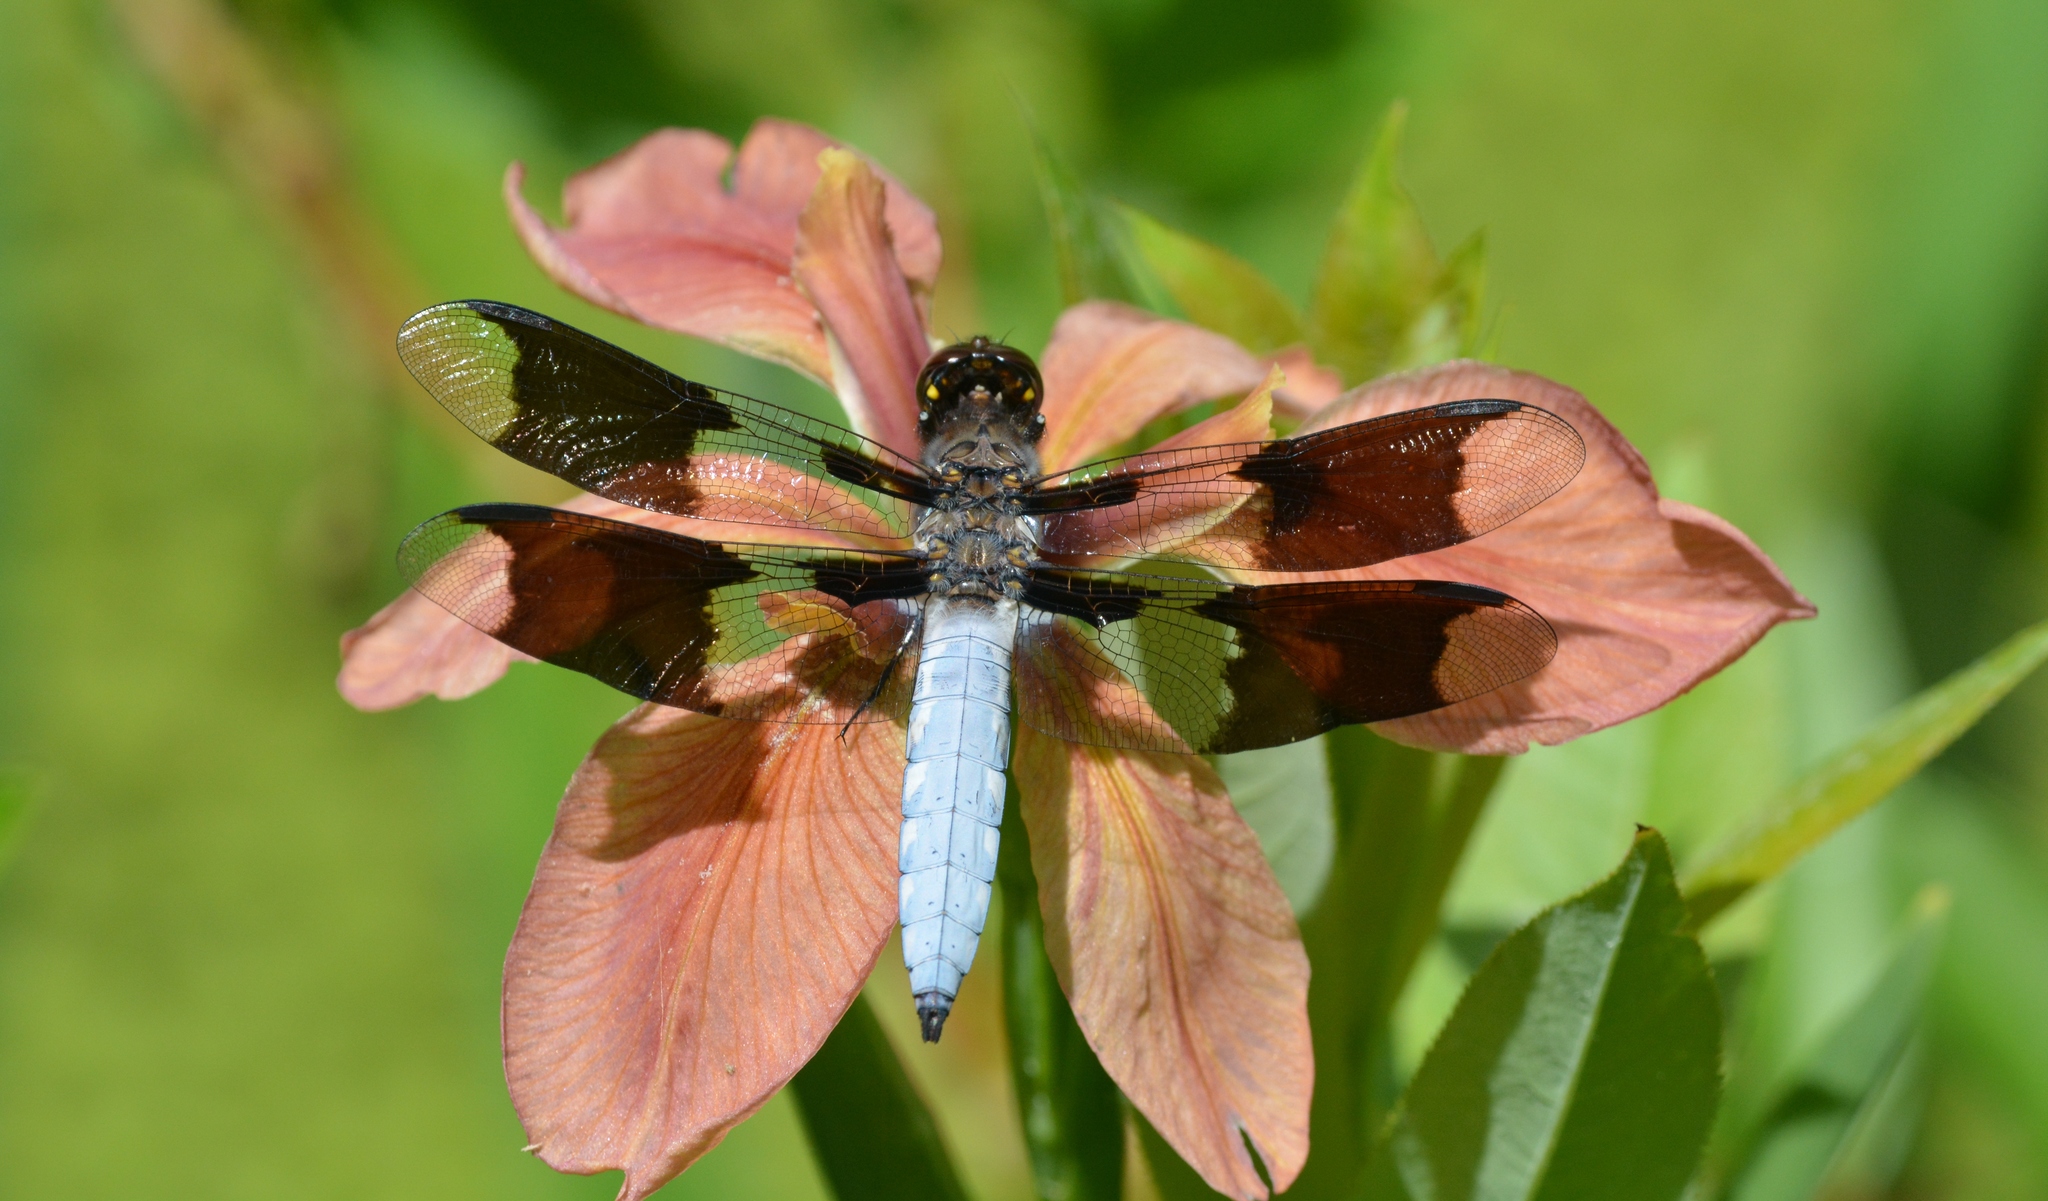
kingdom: Animalia
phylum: Arthropoda
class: Insecta
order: Odonata
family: Libellulidae
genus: Plathemis
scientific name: Plathemis lydia
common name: Common whitetail
